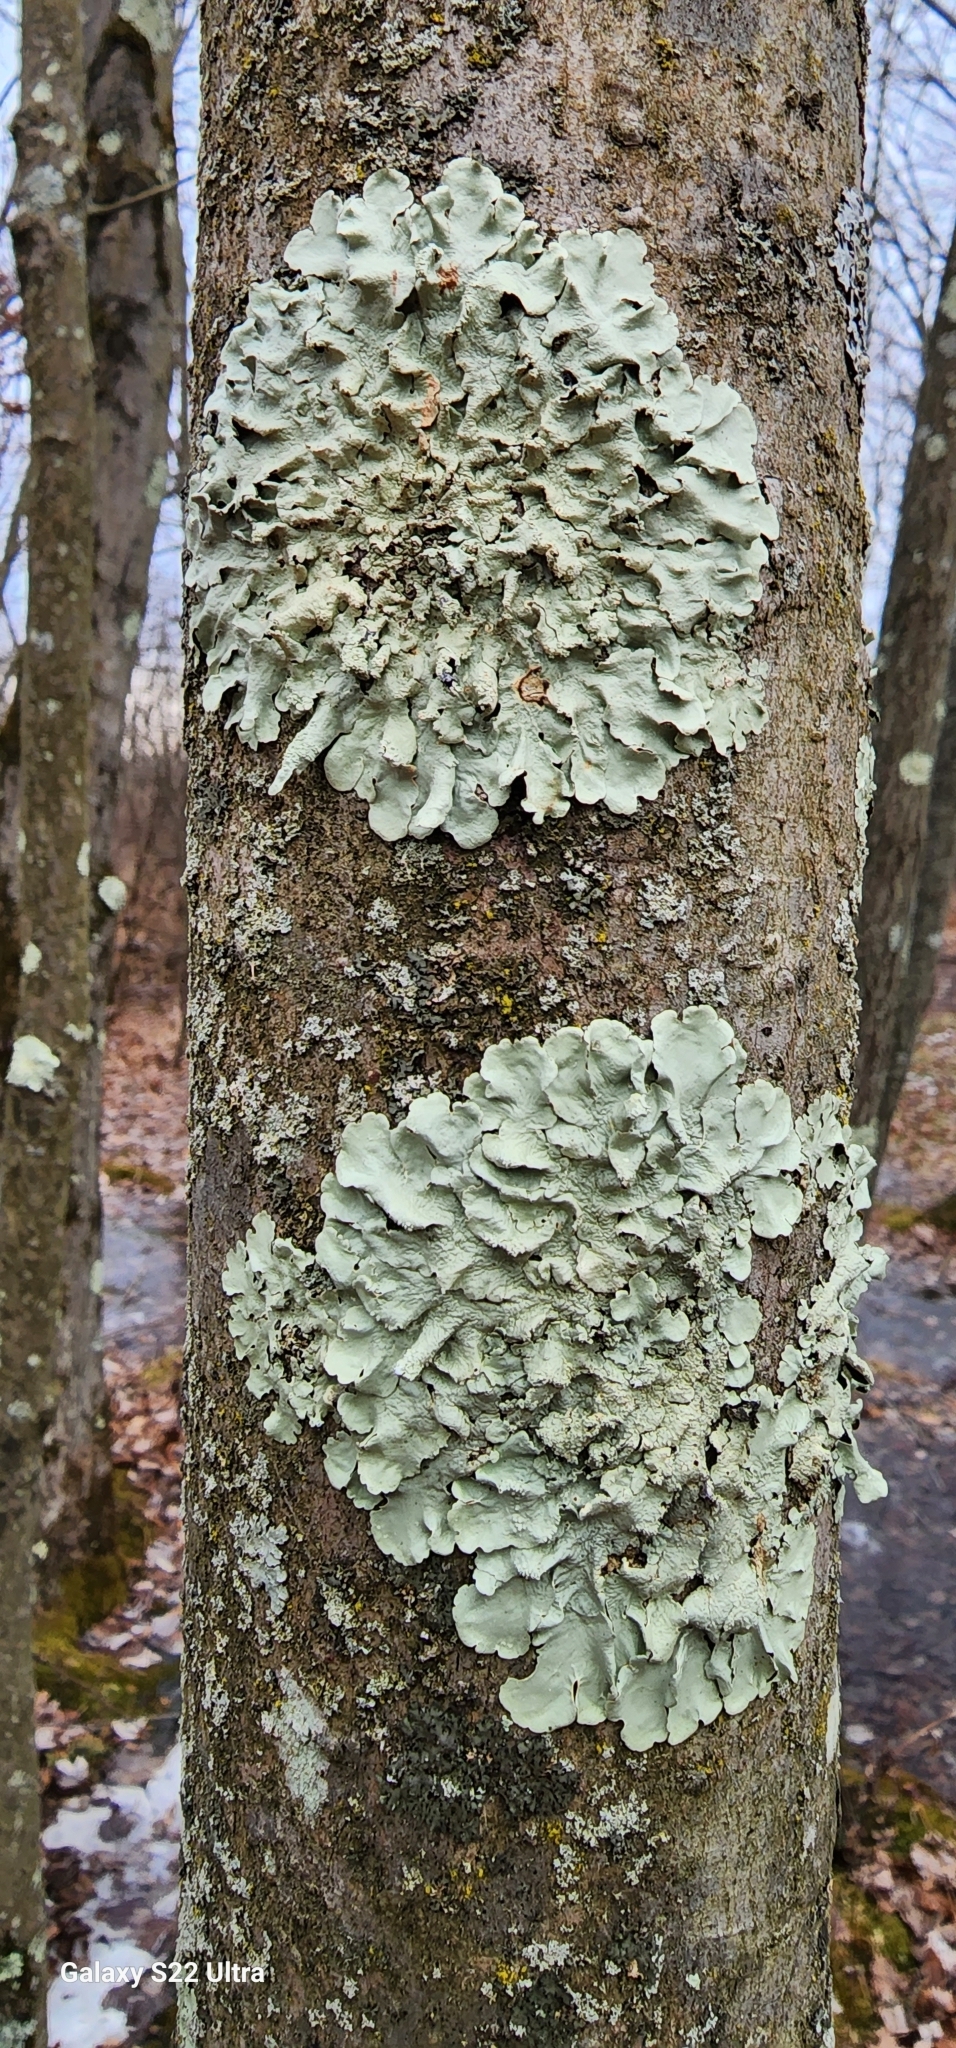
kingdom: Fungi
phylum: Ascomycota
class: Lecanoromycetes
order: Lecanorales
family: Parmeliaceae
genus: Flavoparmelia
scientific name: Flavoparmelia caperata
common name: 40-mile per hour lichen
